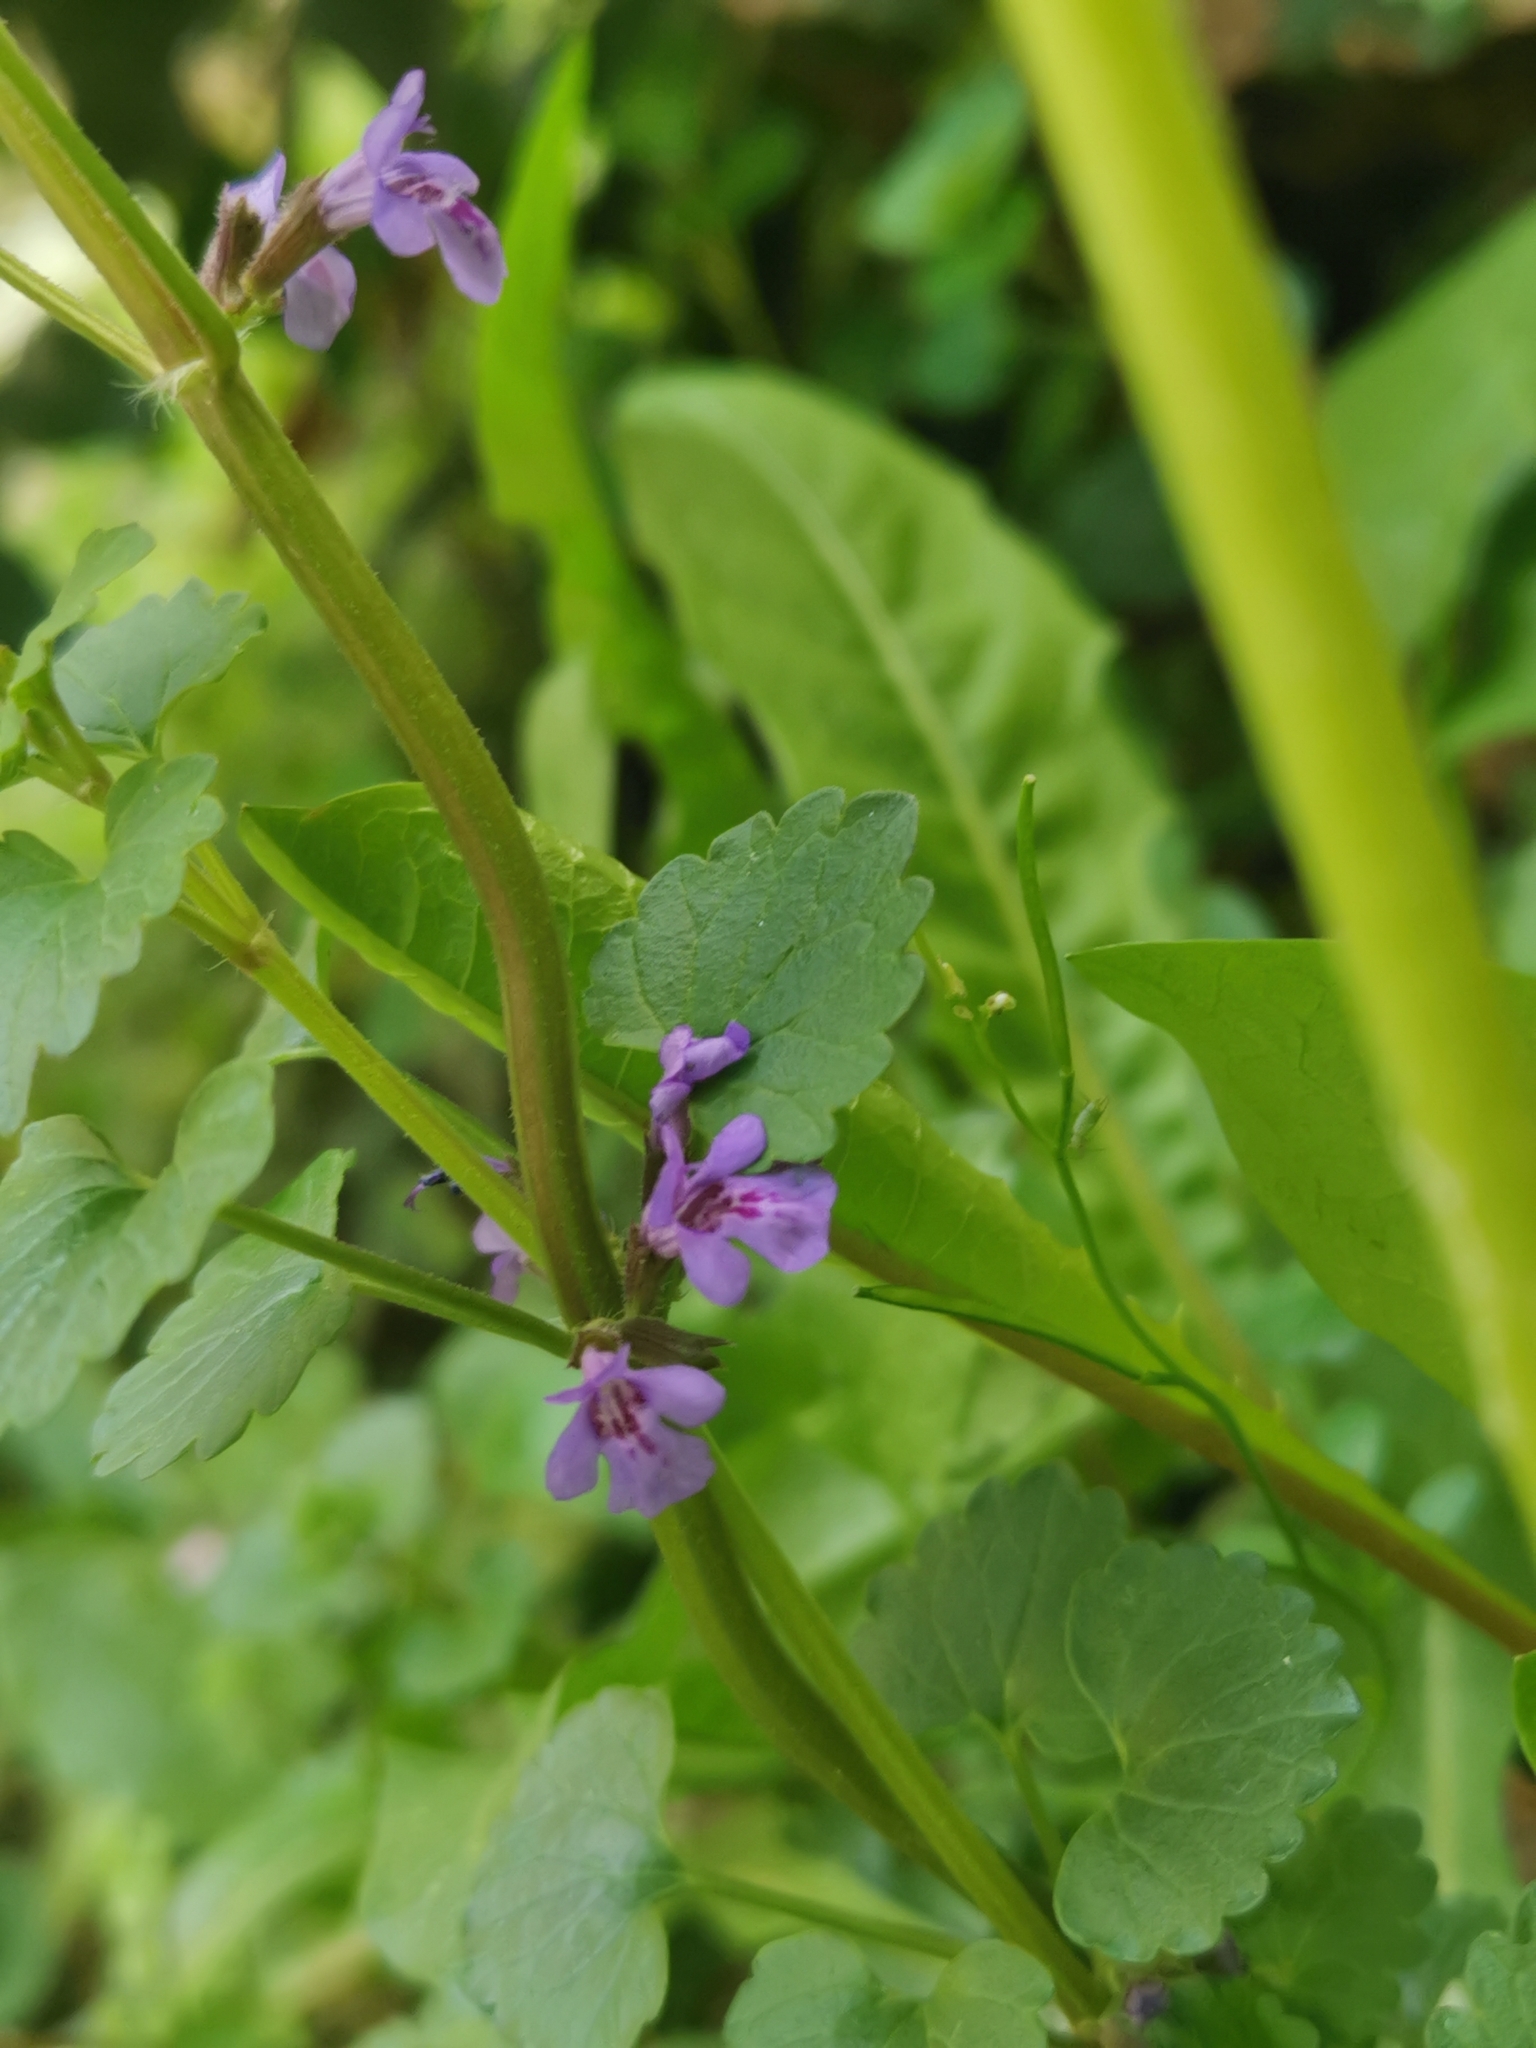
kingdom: Plantae
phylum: Tracheophyta
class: Magnoliopsida
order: Lamiales
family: Lamiaceae
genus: Glechoma
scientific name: Glechoma hederacea
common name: Ground ivy
